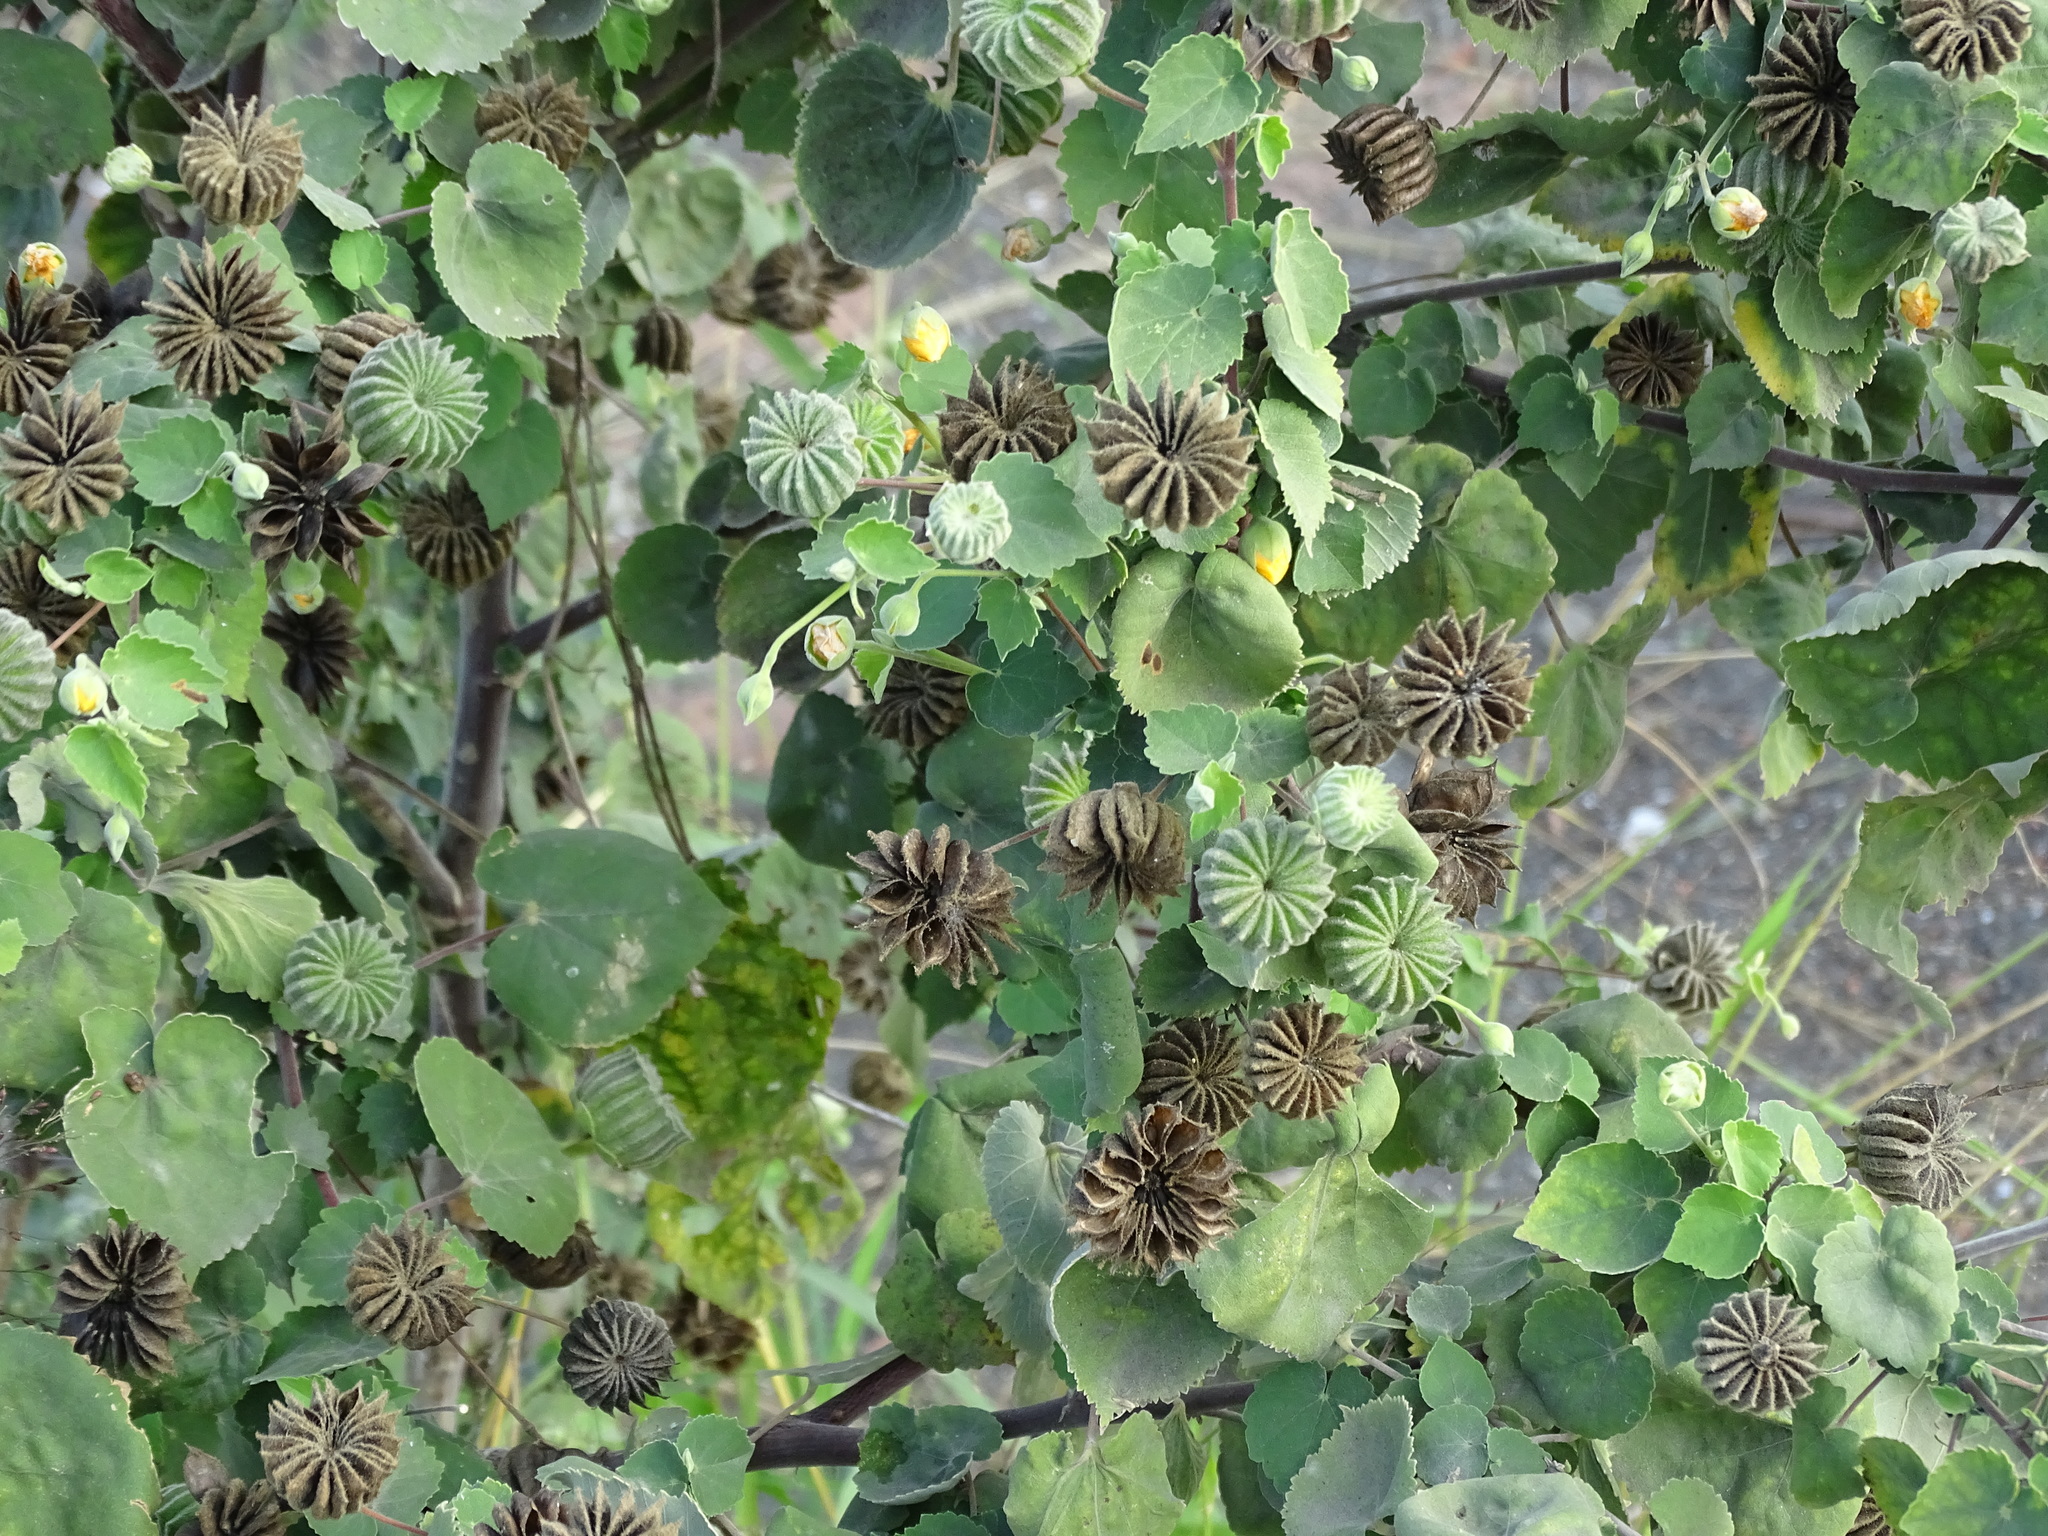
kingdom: Plantae
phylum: Tracheophyta
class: Magnoliopsida
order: Malvales
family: Malvaceae
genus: Abutilon
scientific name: Abutilon indicum
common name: Indian abutilon
